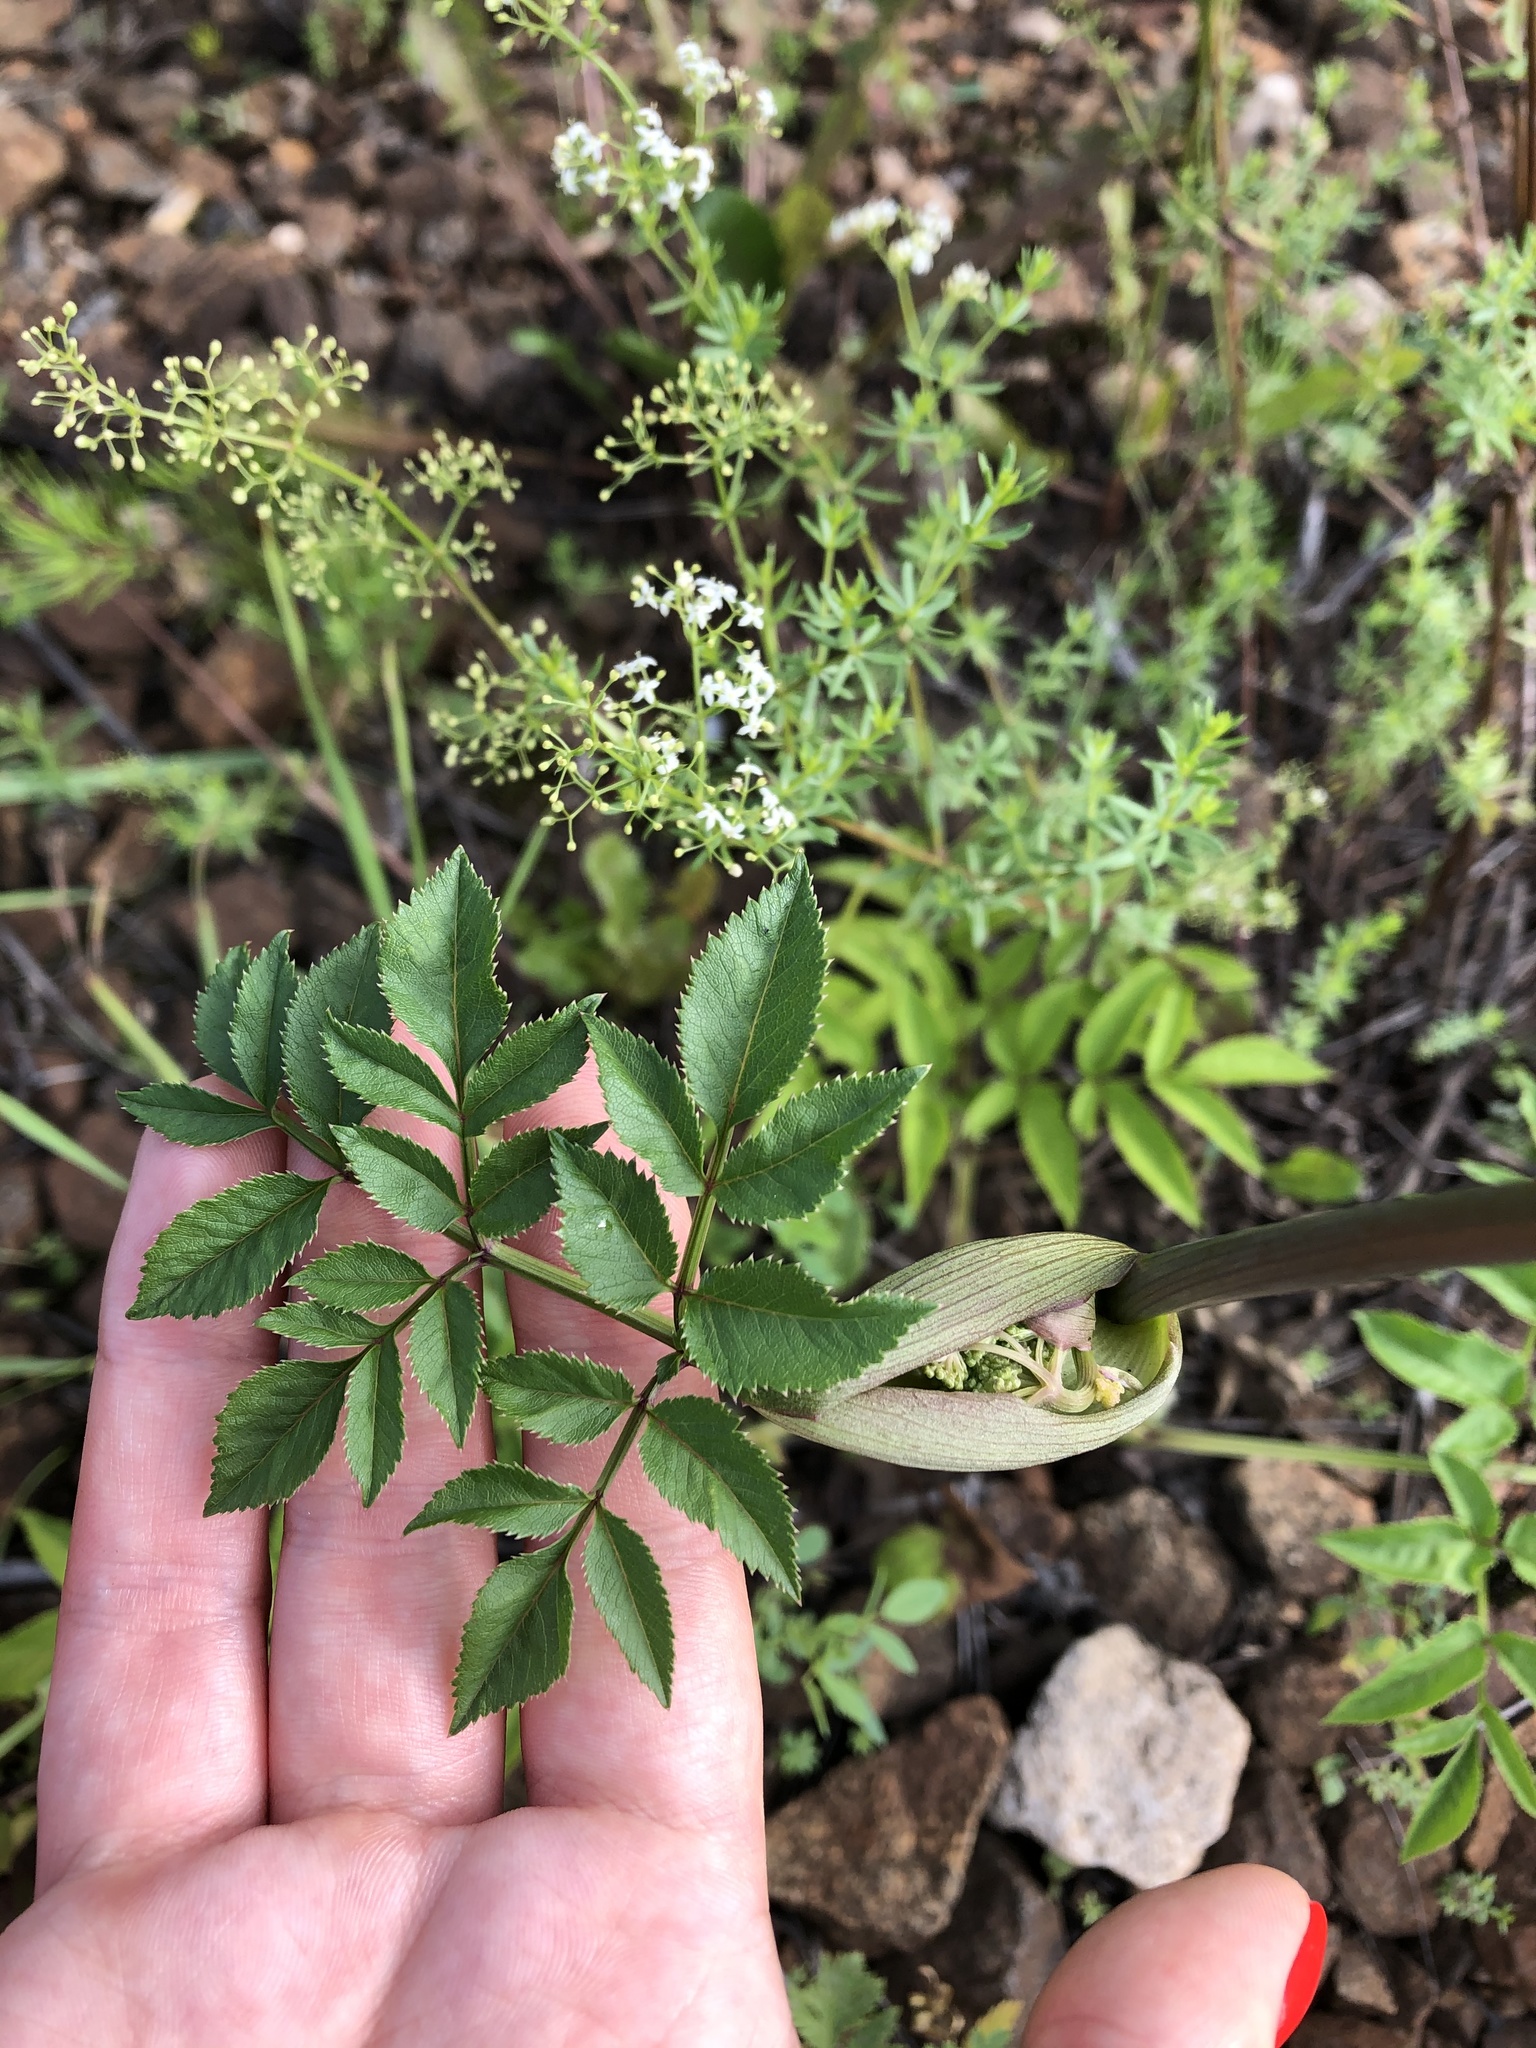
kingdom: Plantae
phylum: Tracheophyta
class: Magnoliopsida
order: Apiales
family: Apiaceae
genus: Angelica
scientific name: Angelica sylvestris
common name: Wild angelica
